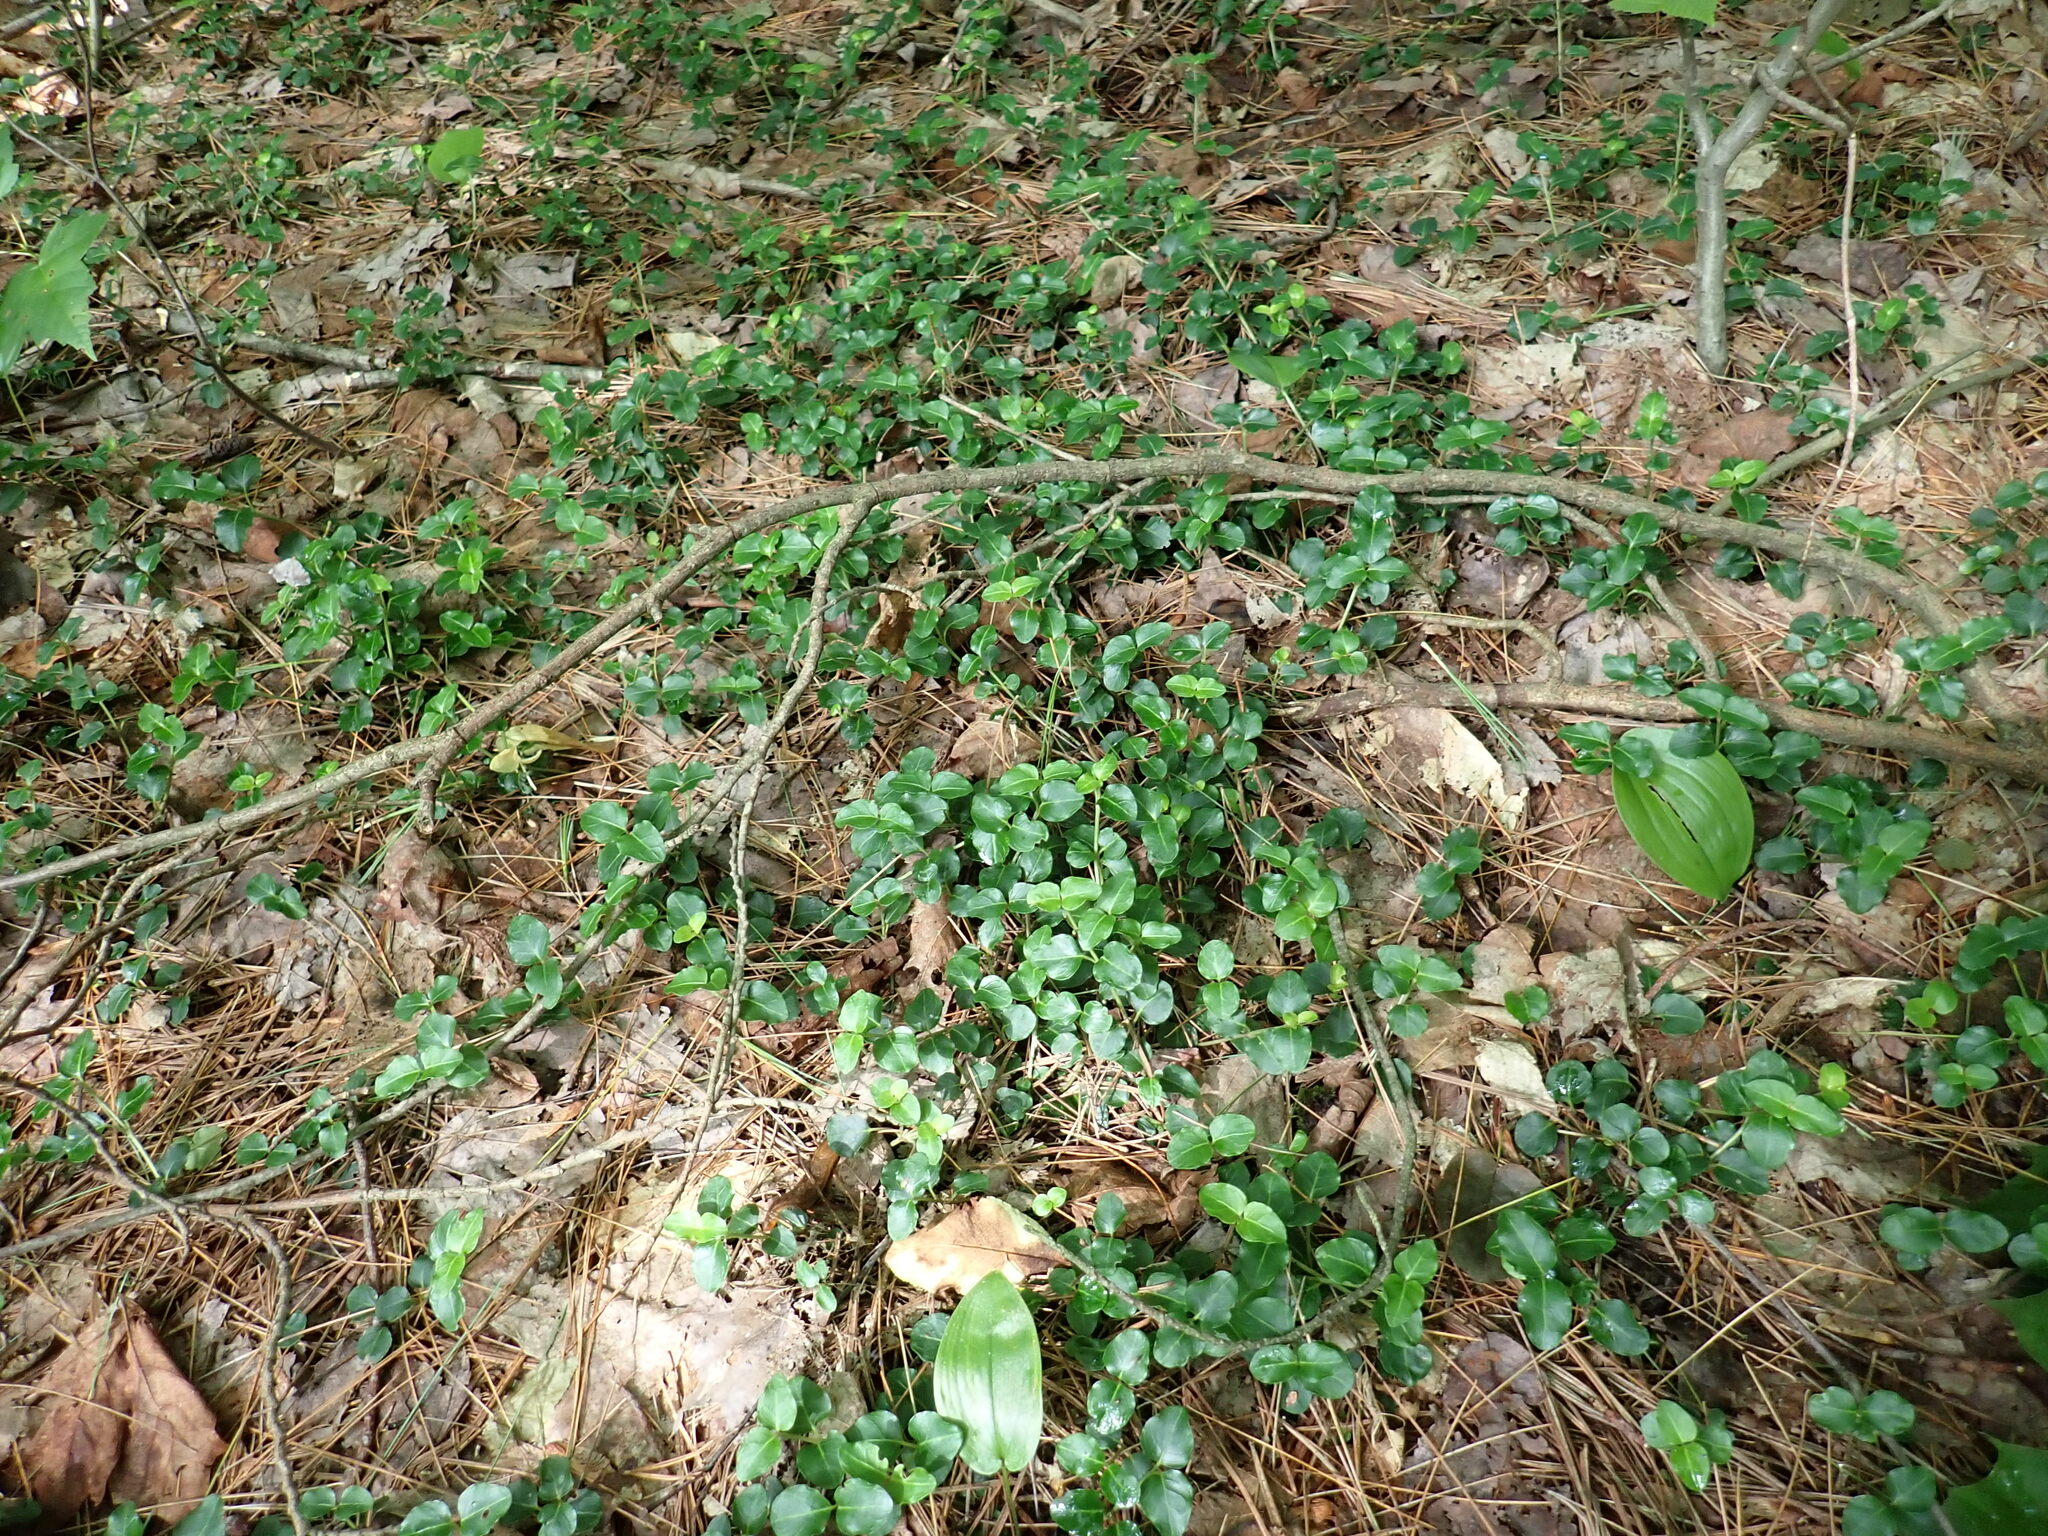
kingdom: Plantae
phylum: Tracheophyta
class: Magnoliopsida
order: Gentianales
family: Rubiaceae
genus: Mitchella
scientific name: Mitchella repens
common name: Partridge-berry
